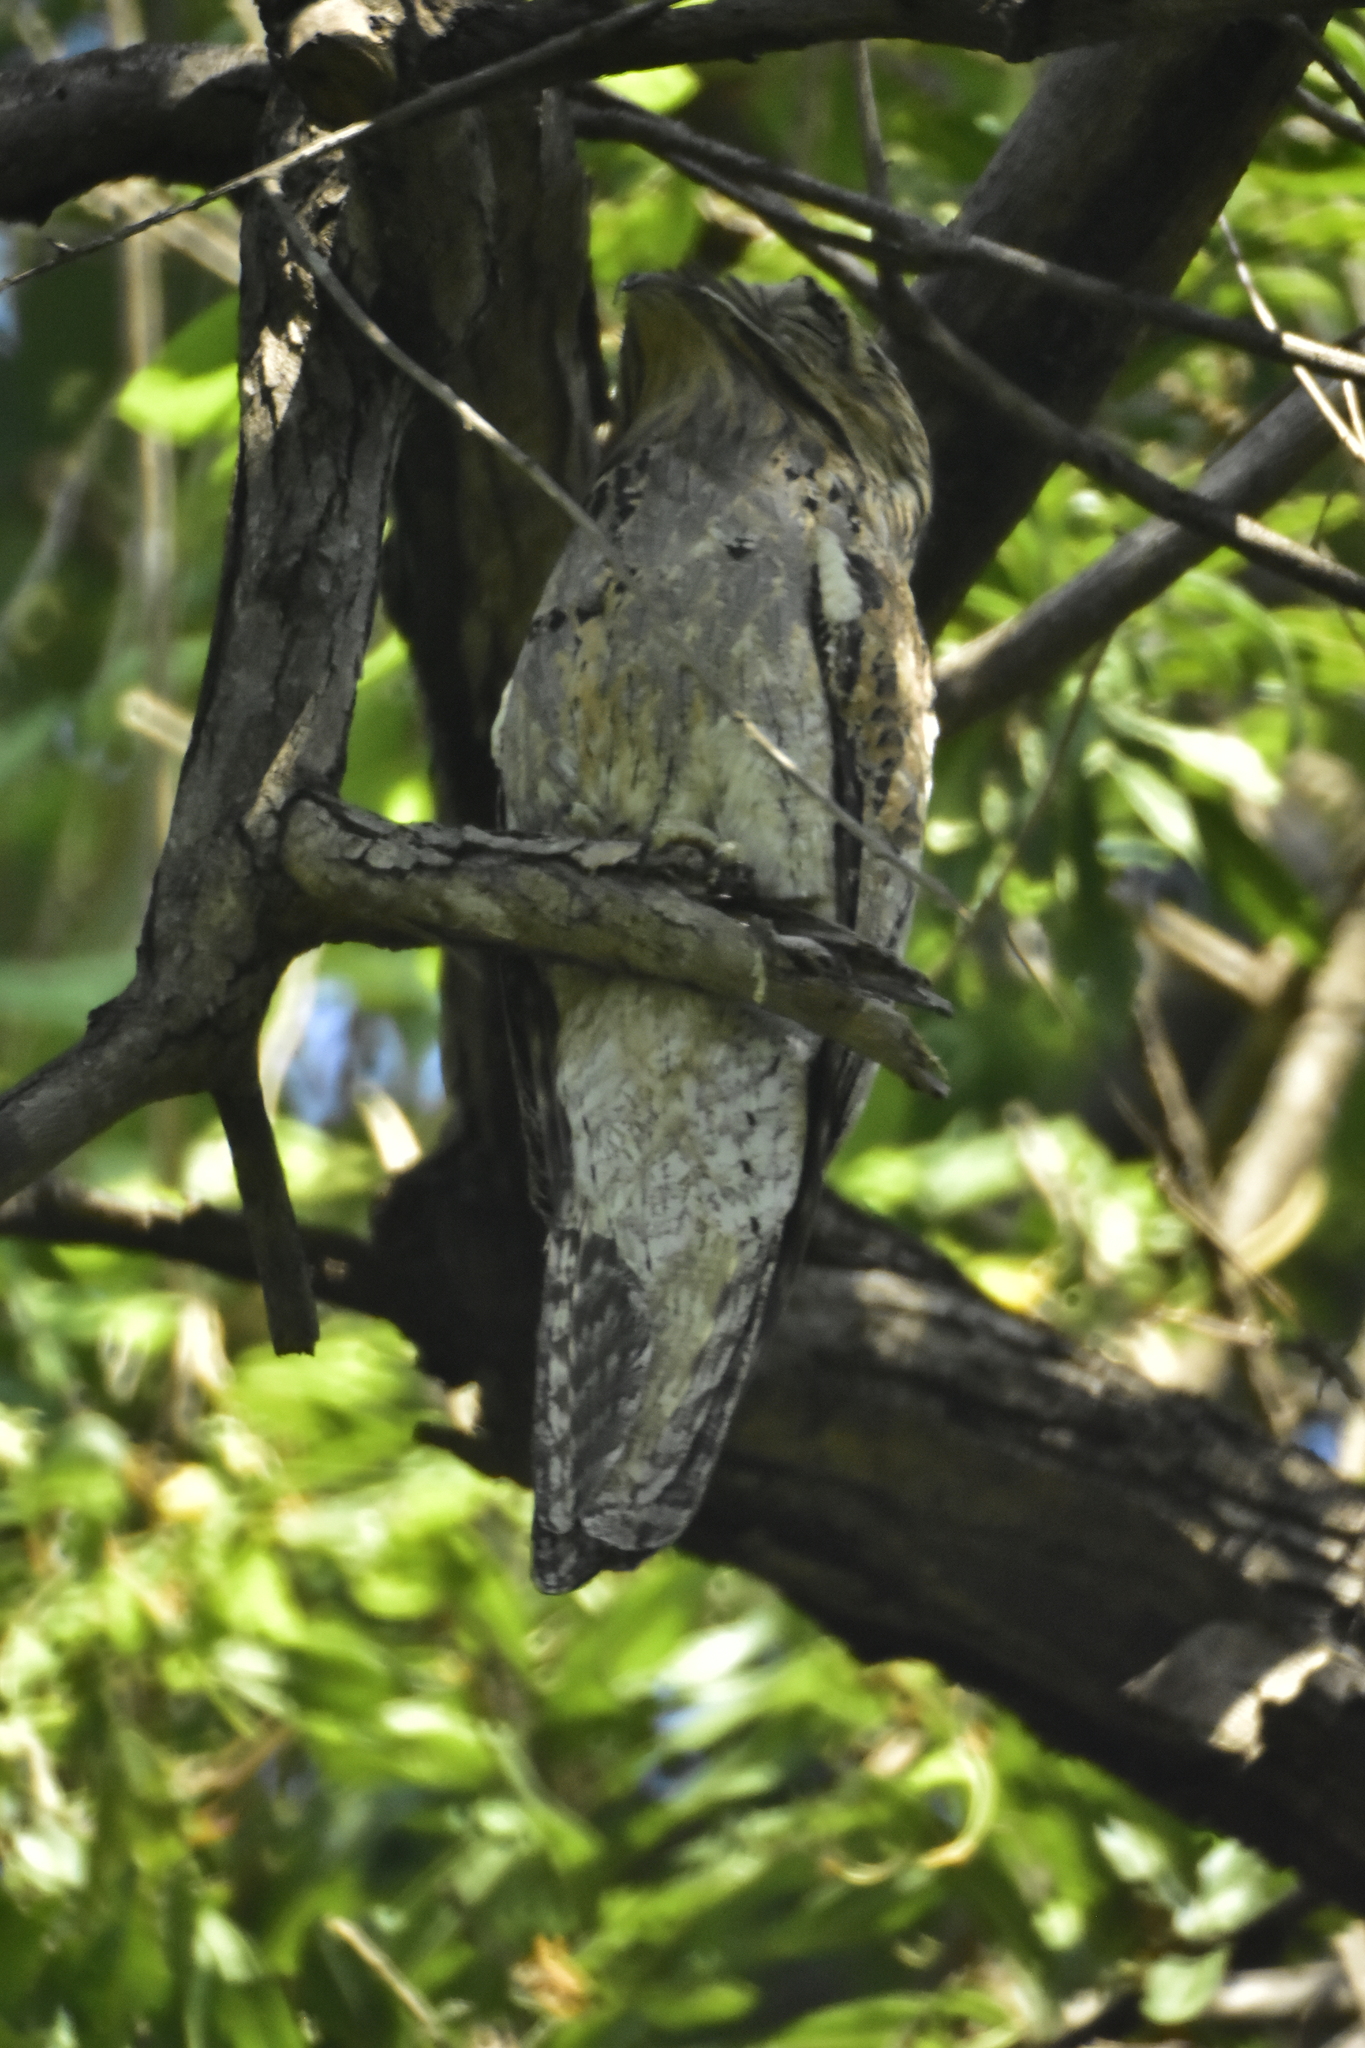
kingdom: Animalia
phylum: Chordata
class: Aves
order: Nyctibiiformes
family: Nyctibiidae
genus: Nyctibius
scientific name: Nyctibius jamaicensis
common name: Northern potoo
